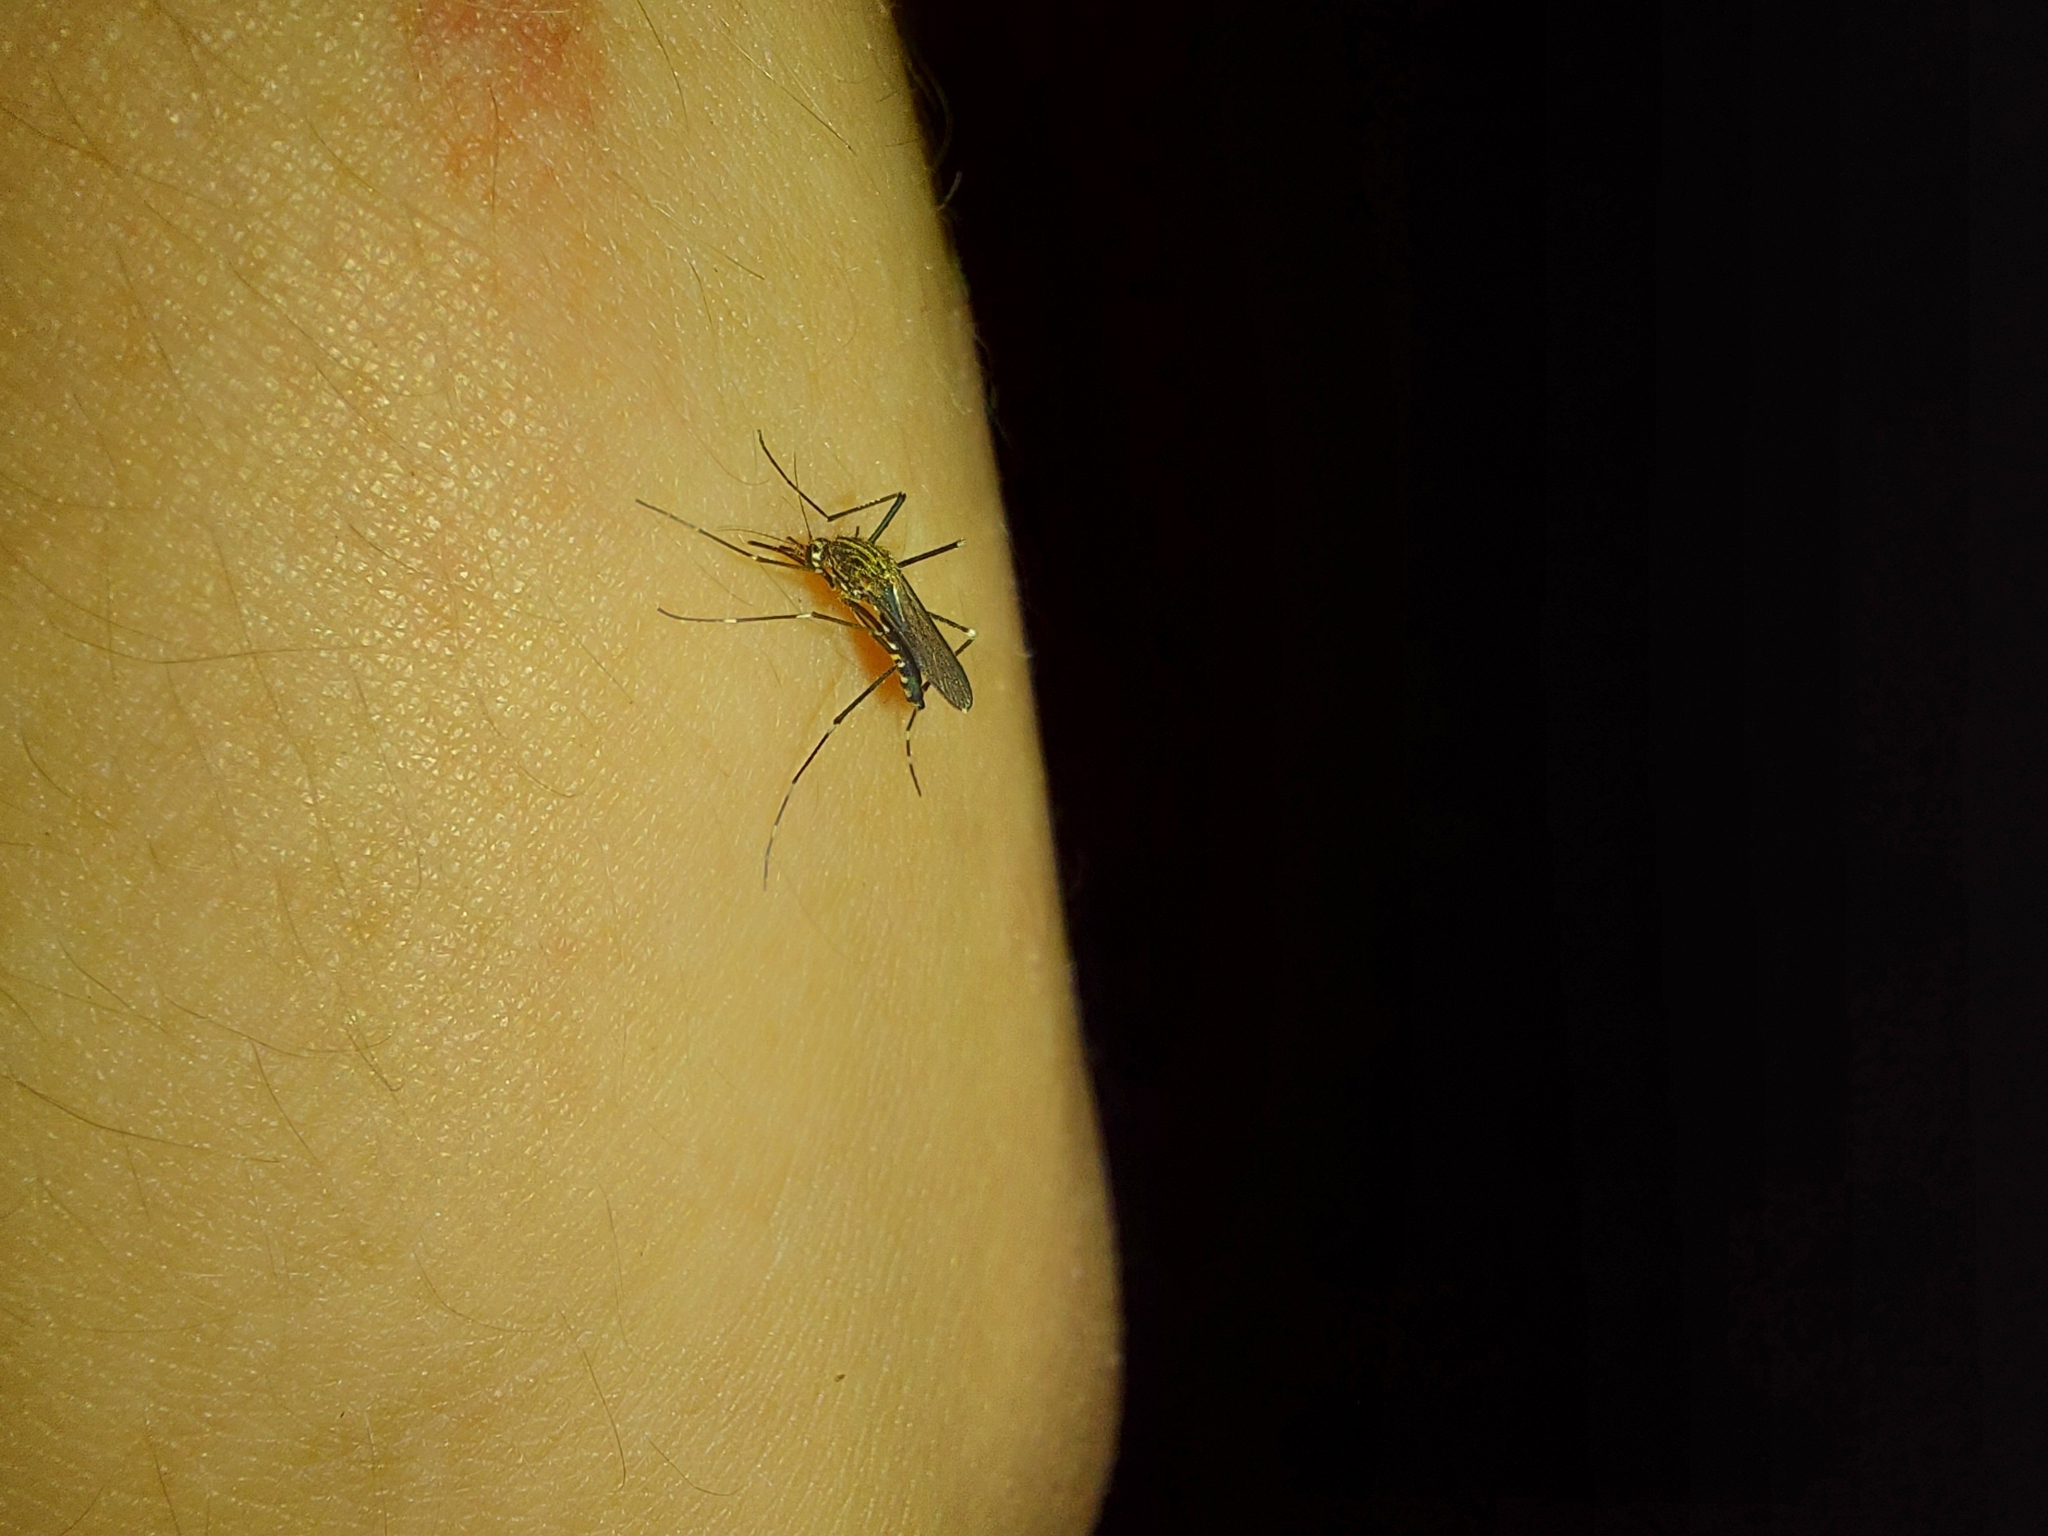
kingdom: Animalia
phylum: Arthropoda
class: Insecta
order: Diptera
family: Culicidae
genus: Aedes
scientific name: Aedes japonicus
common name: Asian bush mosquito
